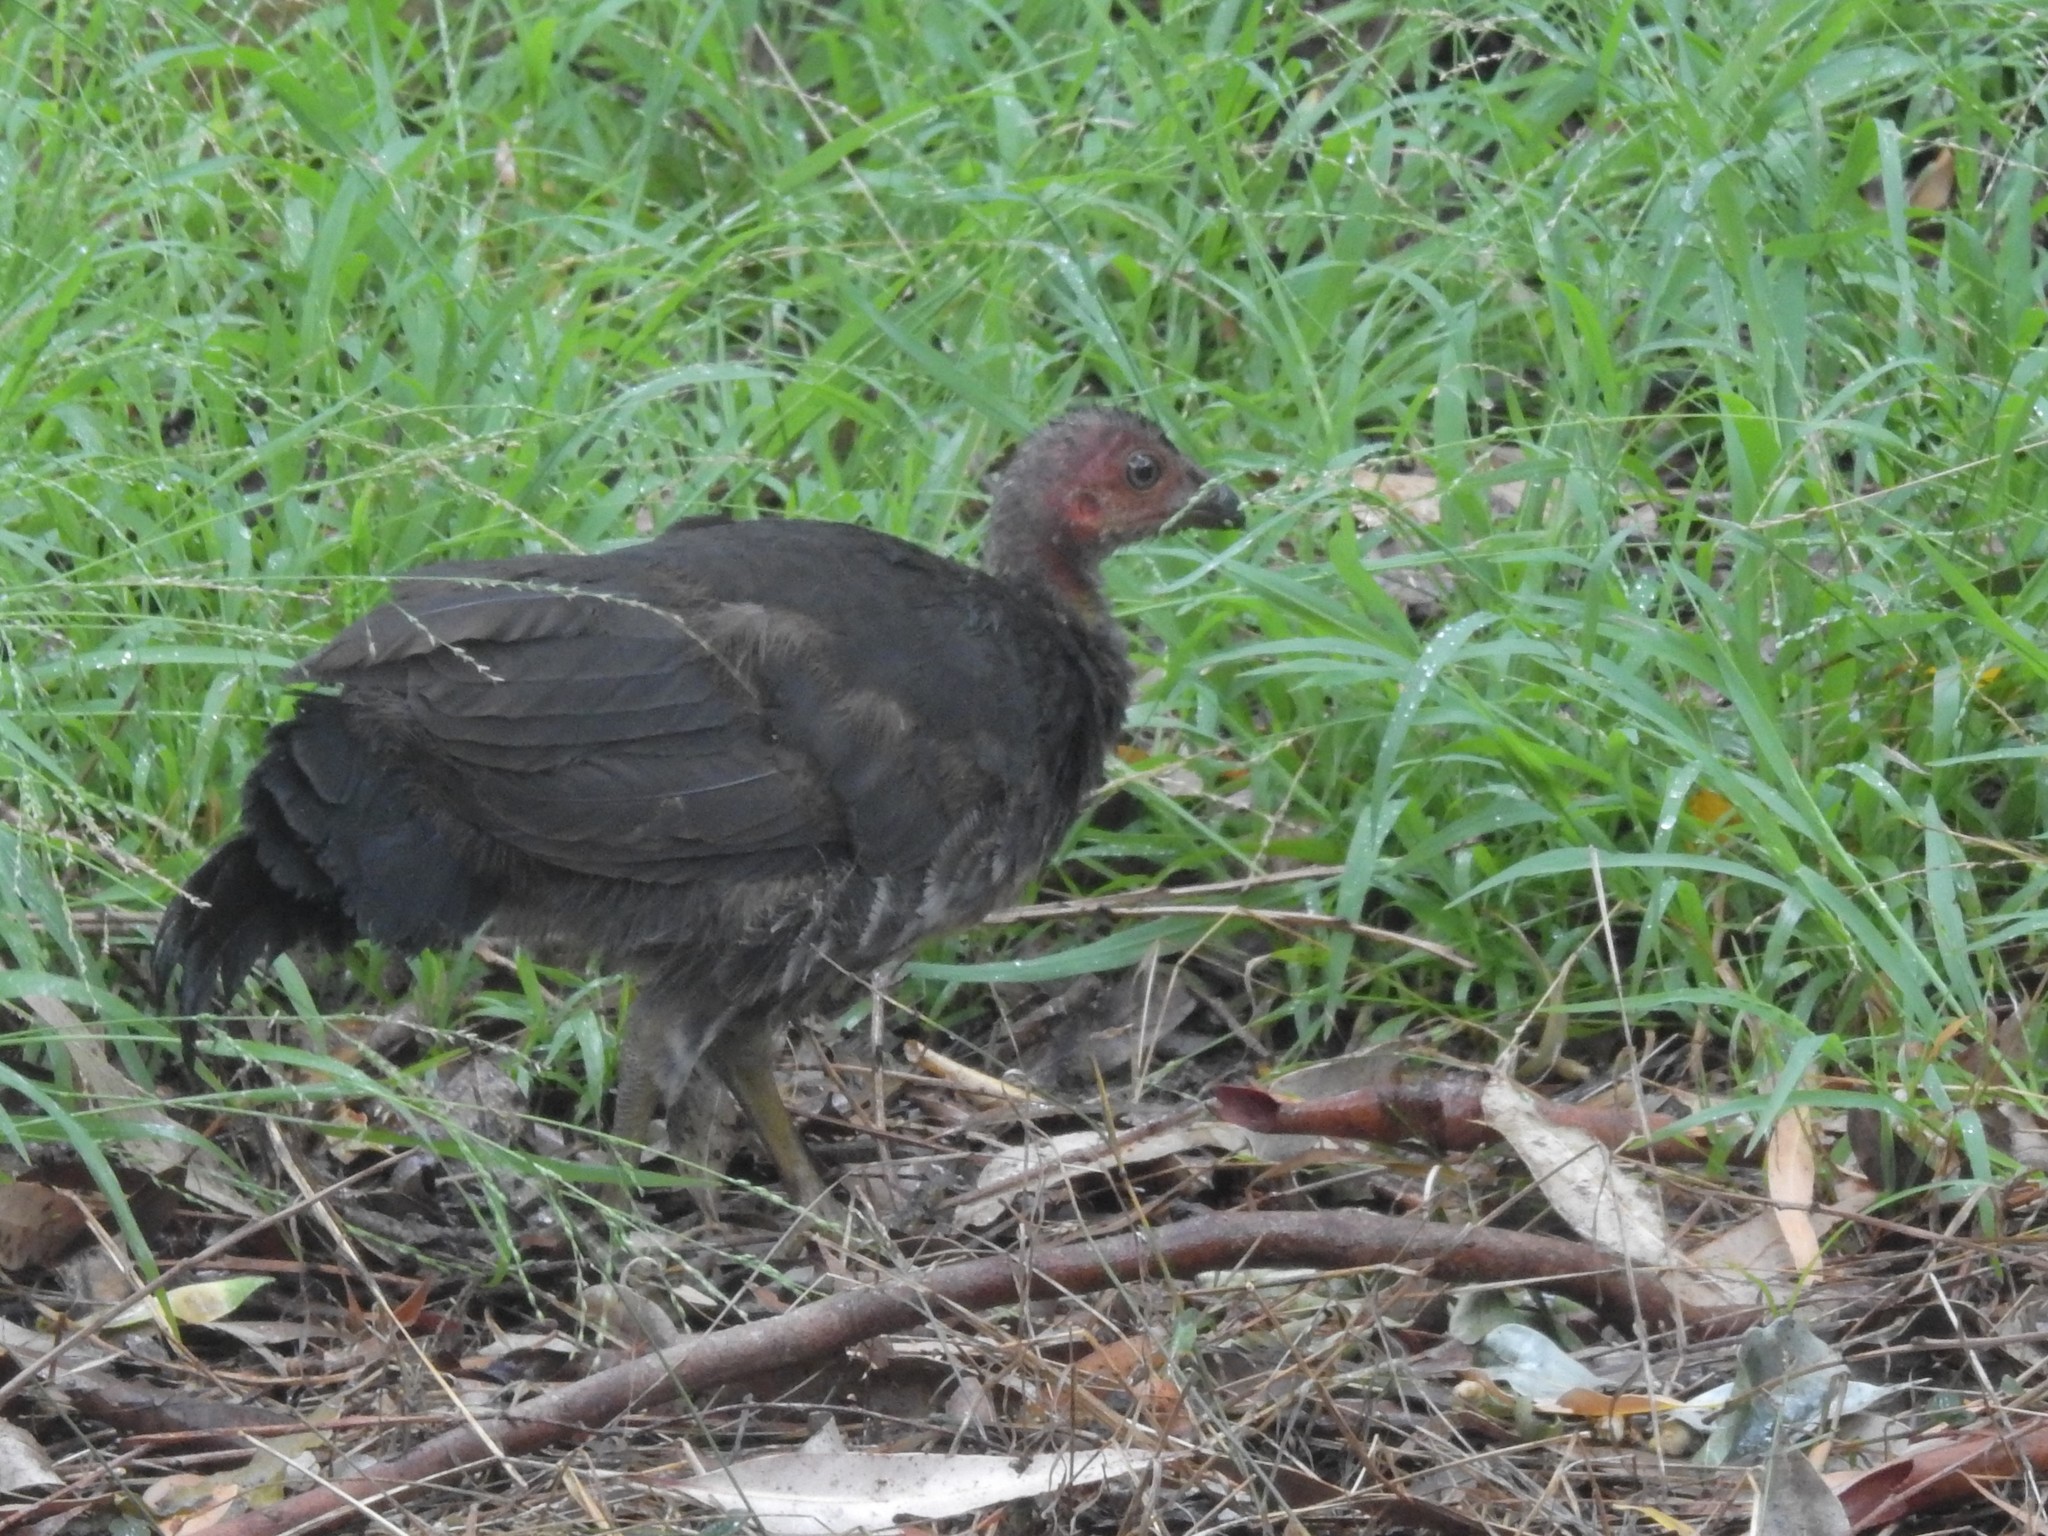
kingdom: Animalia
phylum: Chordata
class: Aves
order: Galliformes
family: Megapodiidae
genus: Alectura
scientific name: Alectura lathami
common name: Australian brushturkey
